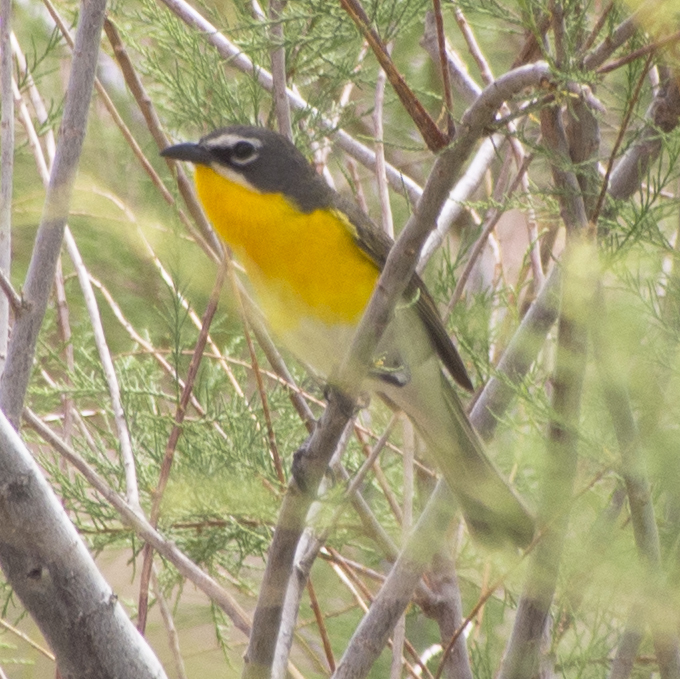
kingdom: Animalia
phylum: Chordata
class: Aves
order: Passeriformes
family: Parulidae
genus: Icteria
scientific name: Icteria virens
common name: Yellow-breasted chat
